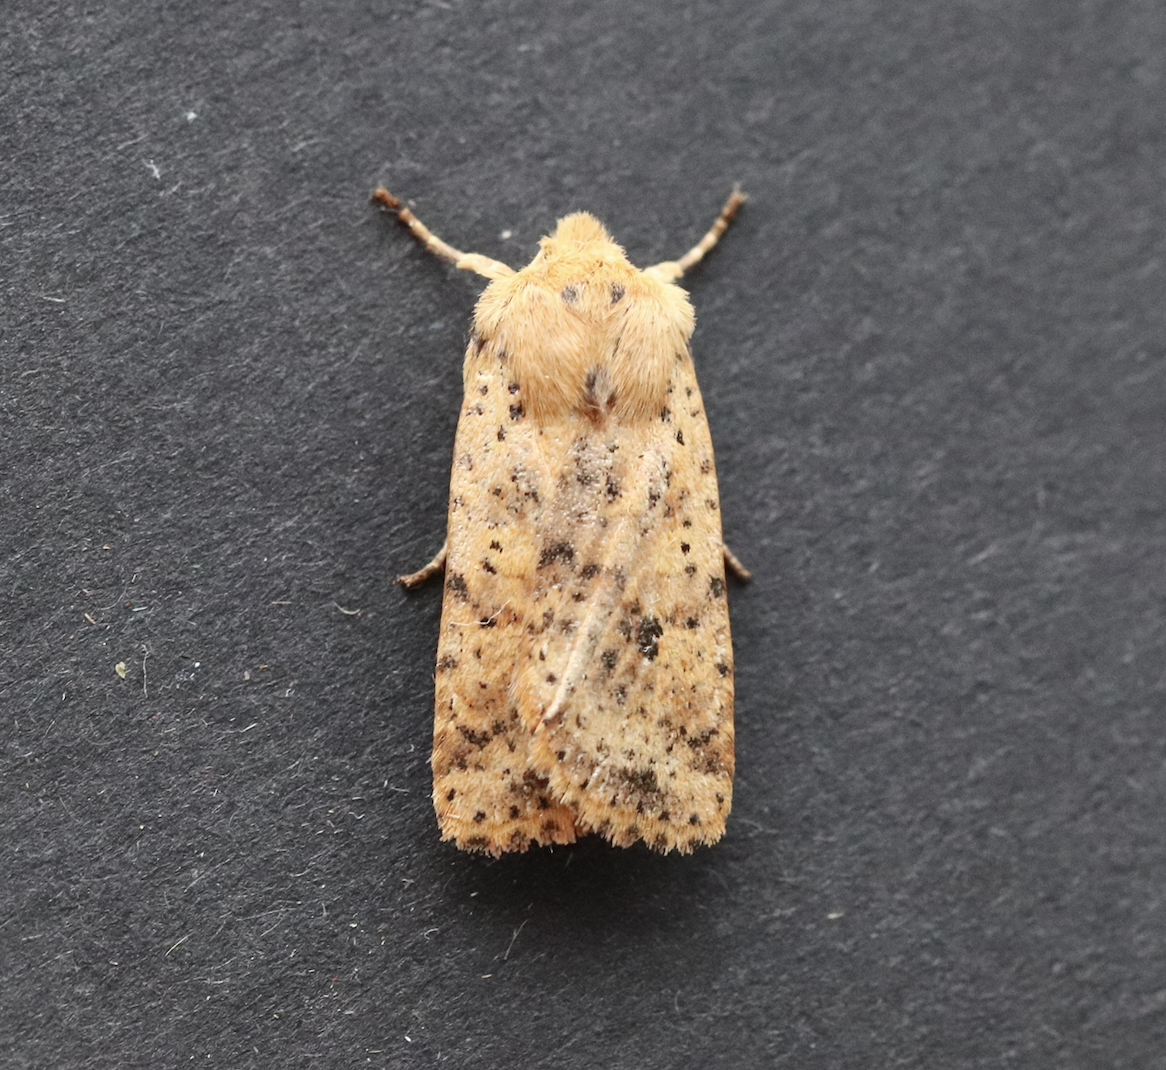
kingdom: Animalia
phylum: Arthropoda
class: Insecta
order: Lepidoptera
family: Noctuidae
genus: Conistra
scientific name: Conistra rubiginea
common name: Dotted chestnut
